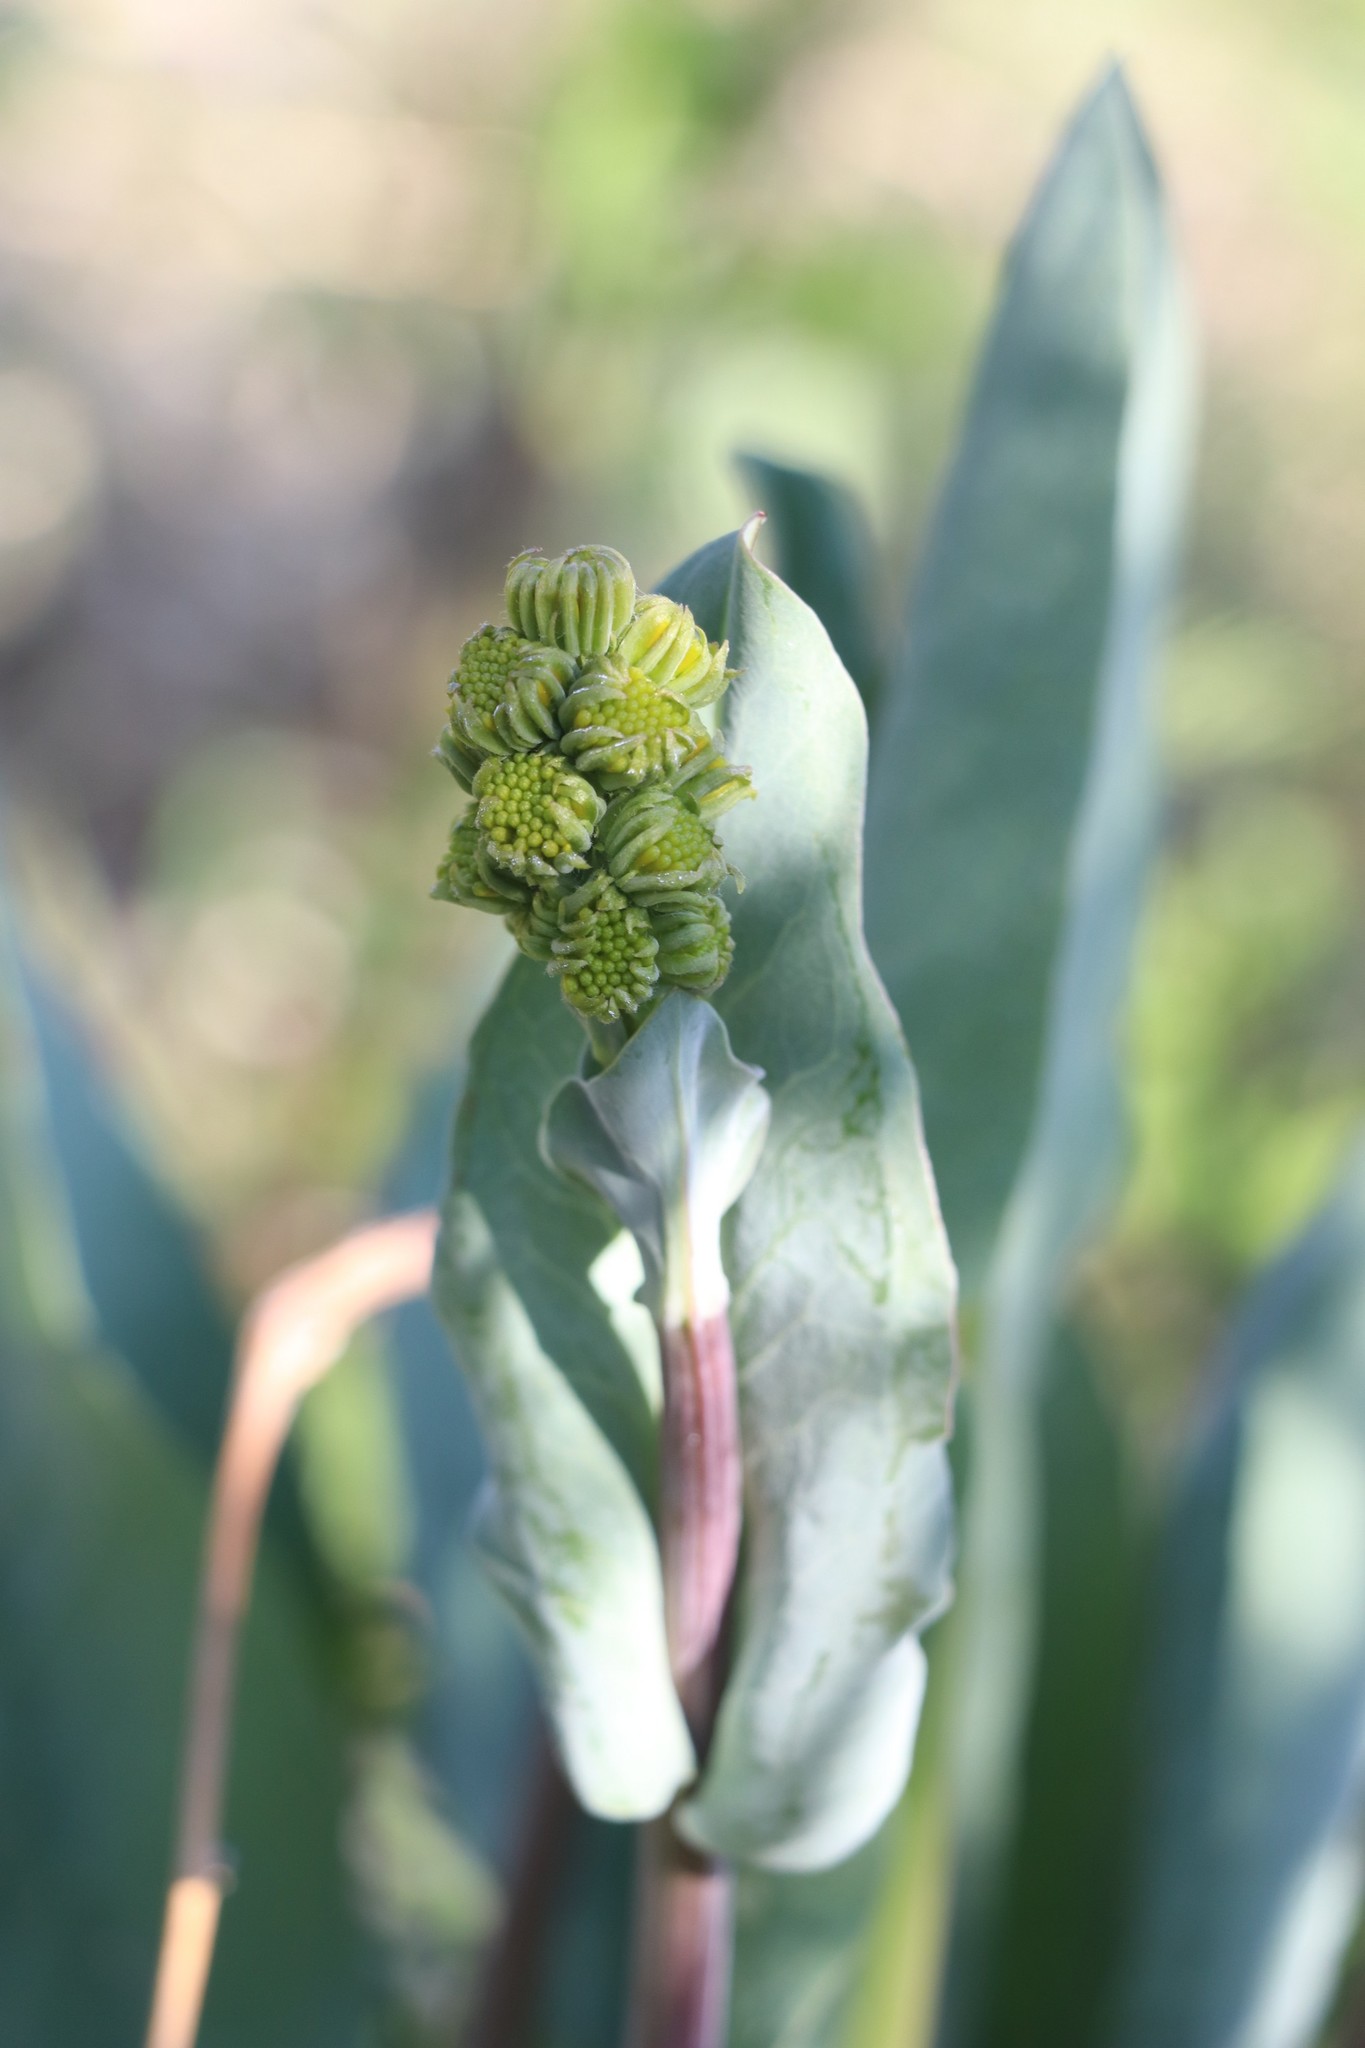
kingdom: Plantae
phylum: Tracheophyta
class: Magnoliopsida
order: Asterales
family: Asteraceae
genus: Ligularia
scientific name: Ligularia glauca
